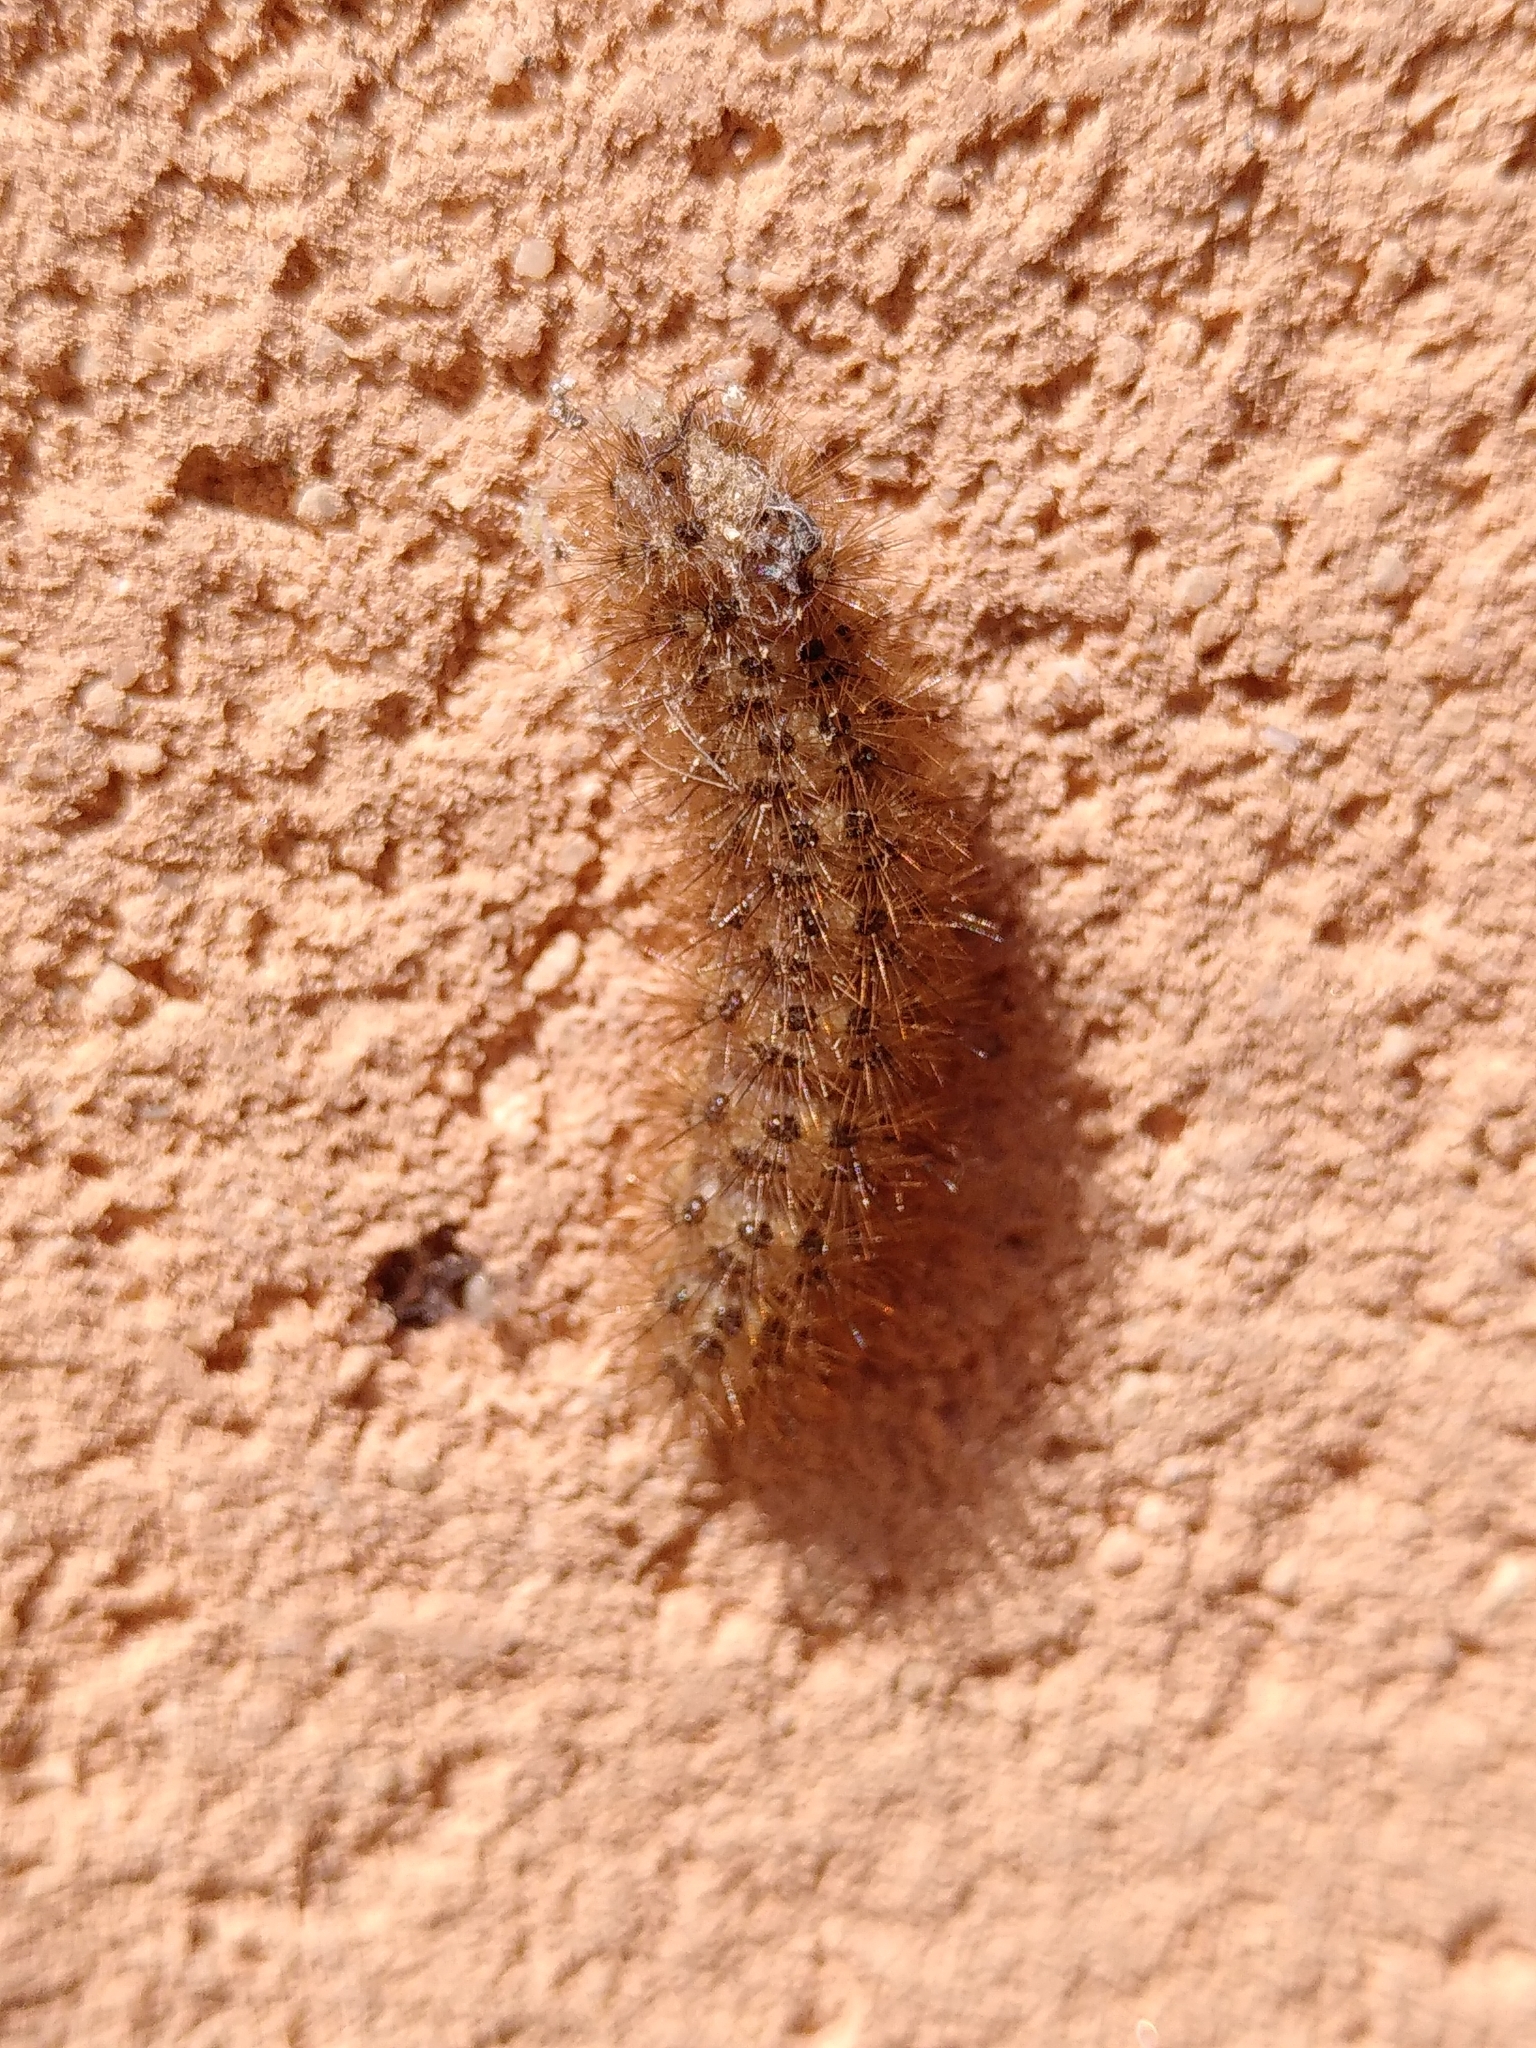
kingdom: Animalia
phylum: Arthropoda
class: Insecta
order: Lepidoptera
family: Erebidae
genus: Cymbalophora
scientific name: Cymbalophora pudica
